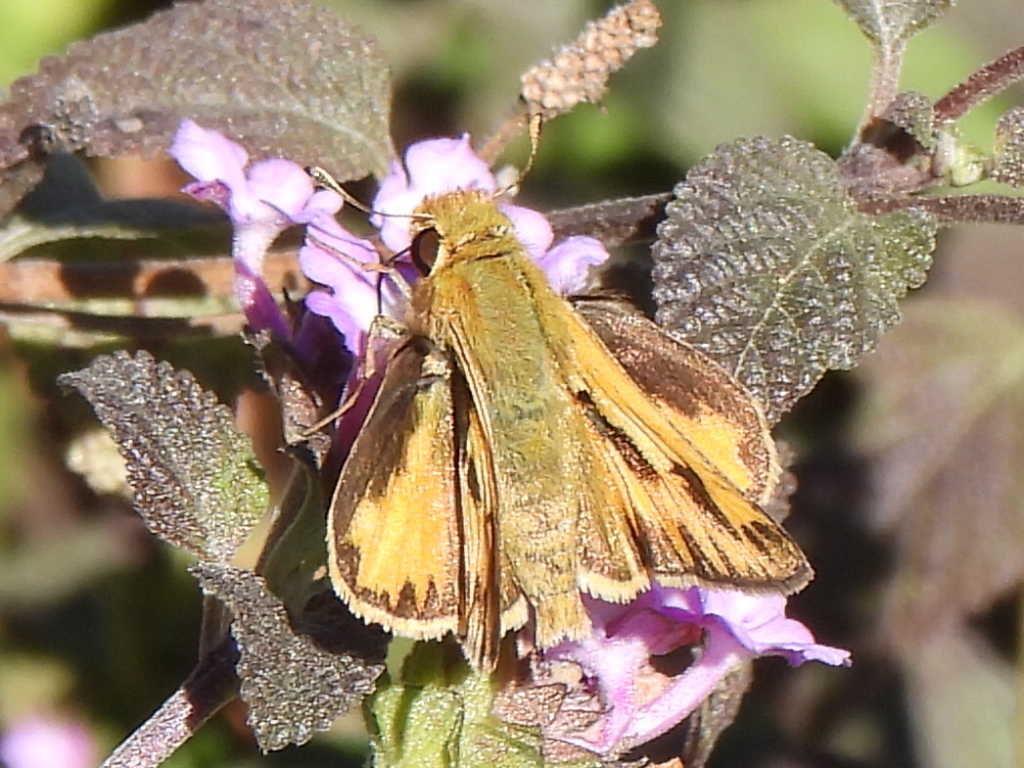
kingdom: Animalia
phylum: Arthropoda
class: Insecta
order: Lepidoptera
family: Hesperiidae
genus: Hylephila
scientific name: Hylephila phyleus
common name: Fiery skipper
